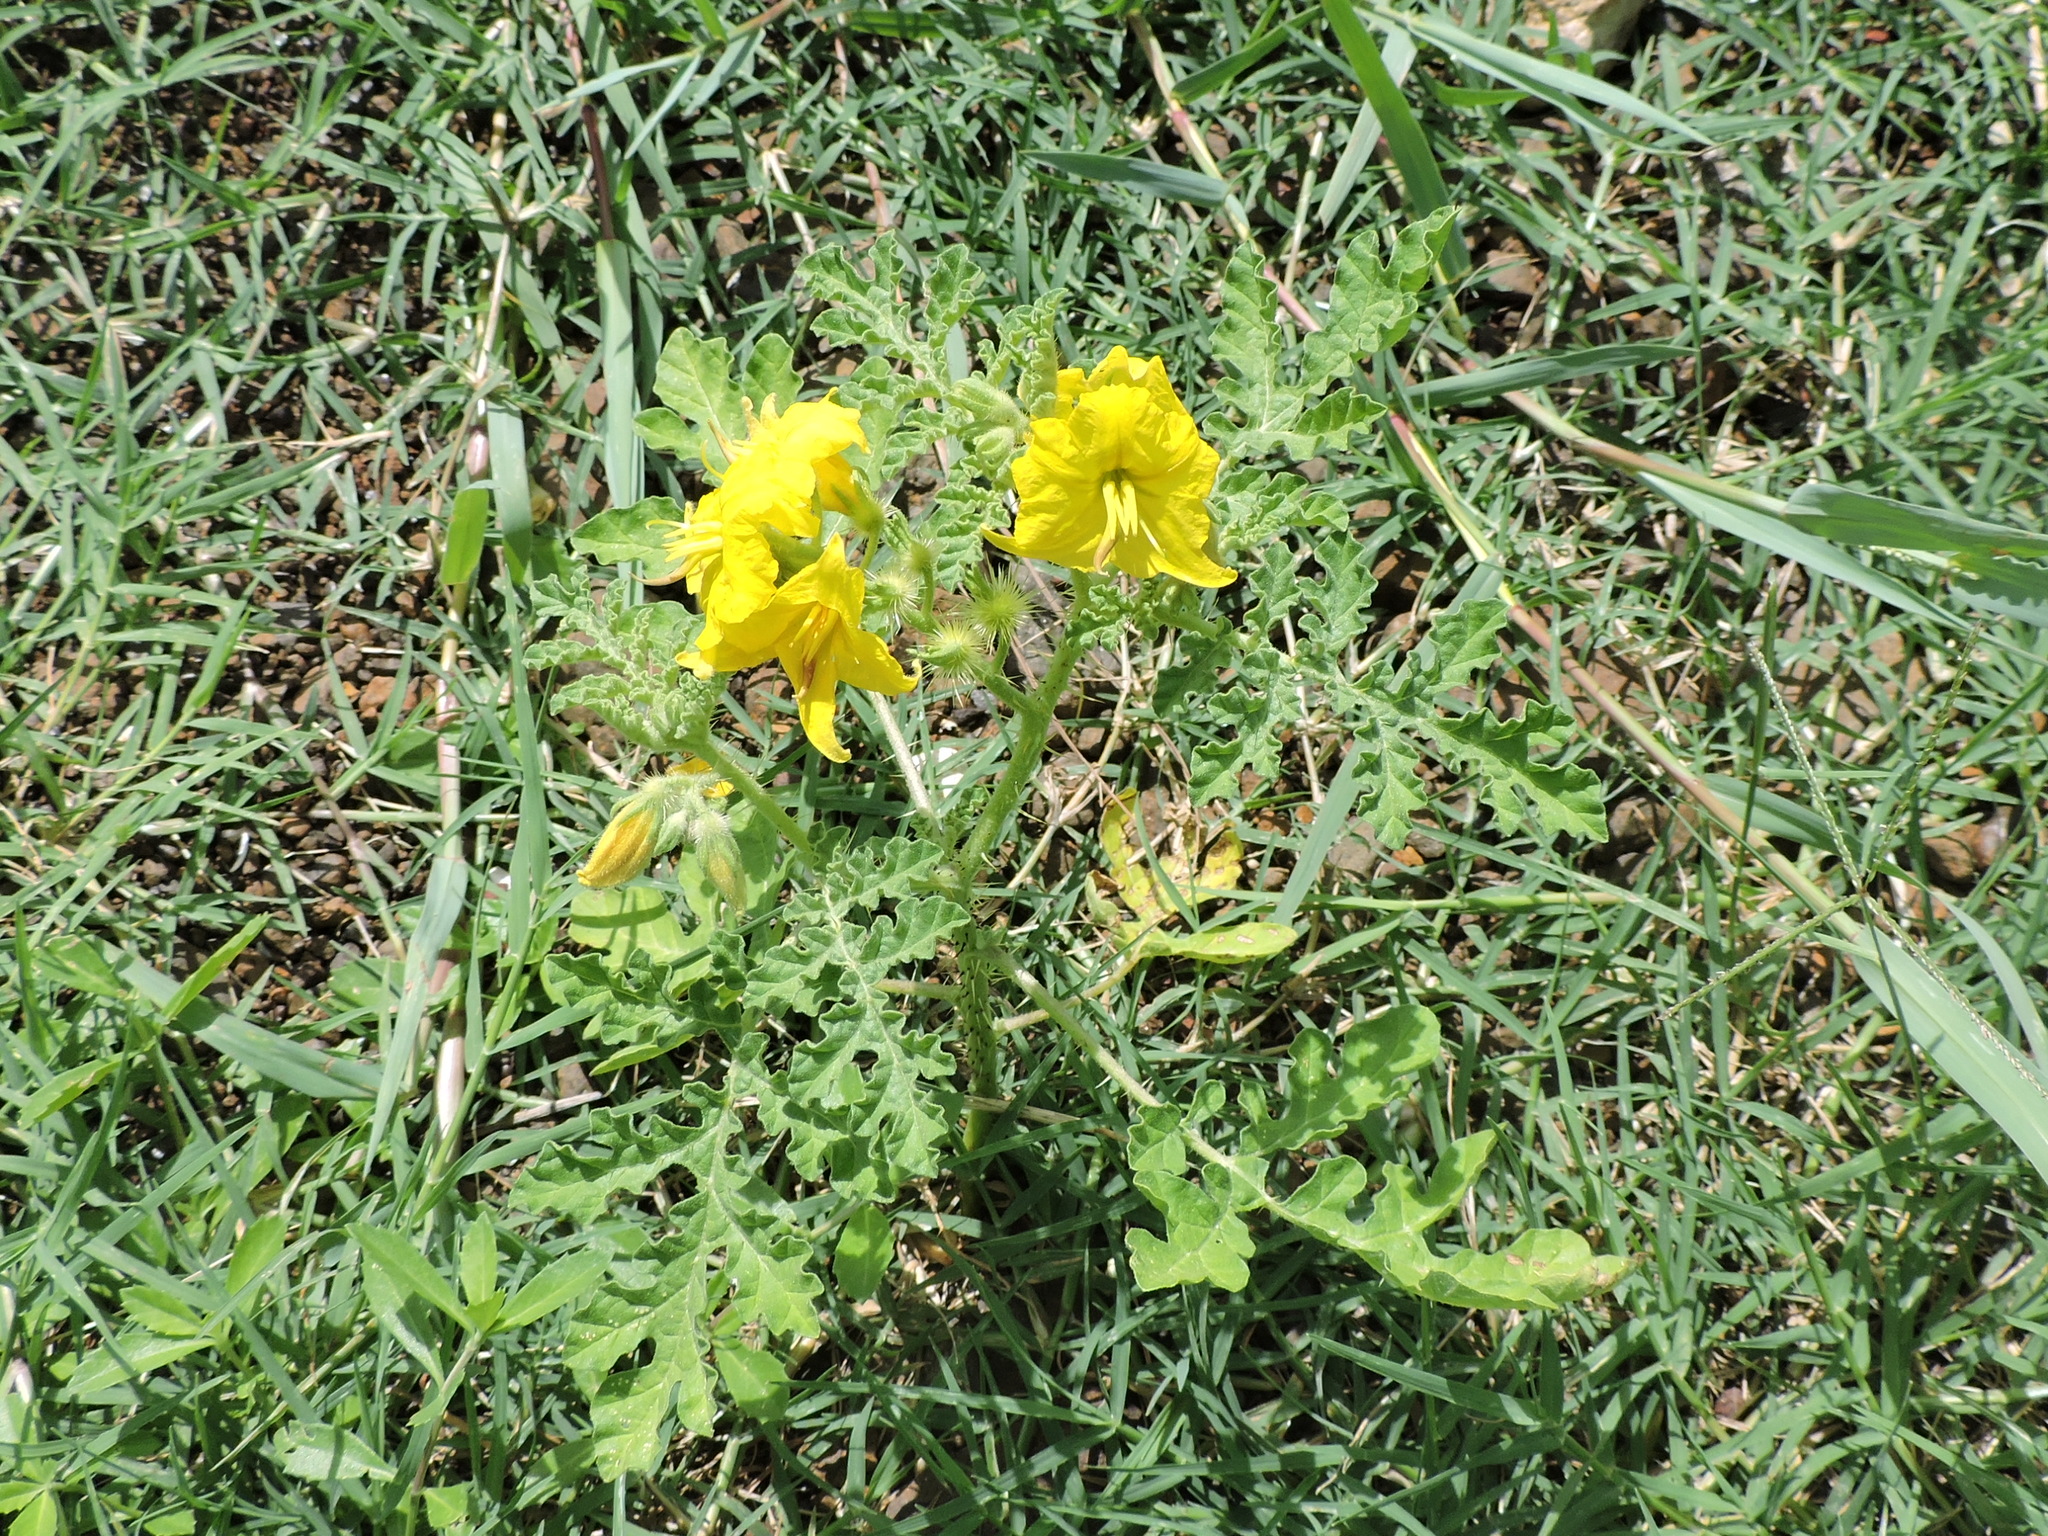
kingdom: Plantae
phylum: Tracheophyta
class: Magnoliopsida
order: Solanales
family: Solanaceae
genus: Solanum
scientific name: Solanum angustifolium
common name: Buffalobur nightshade
